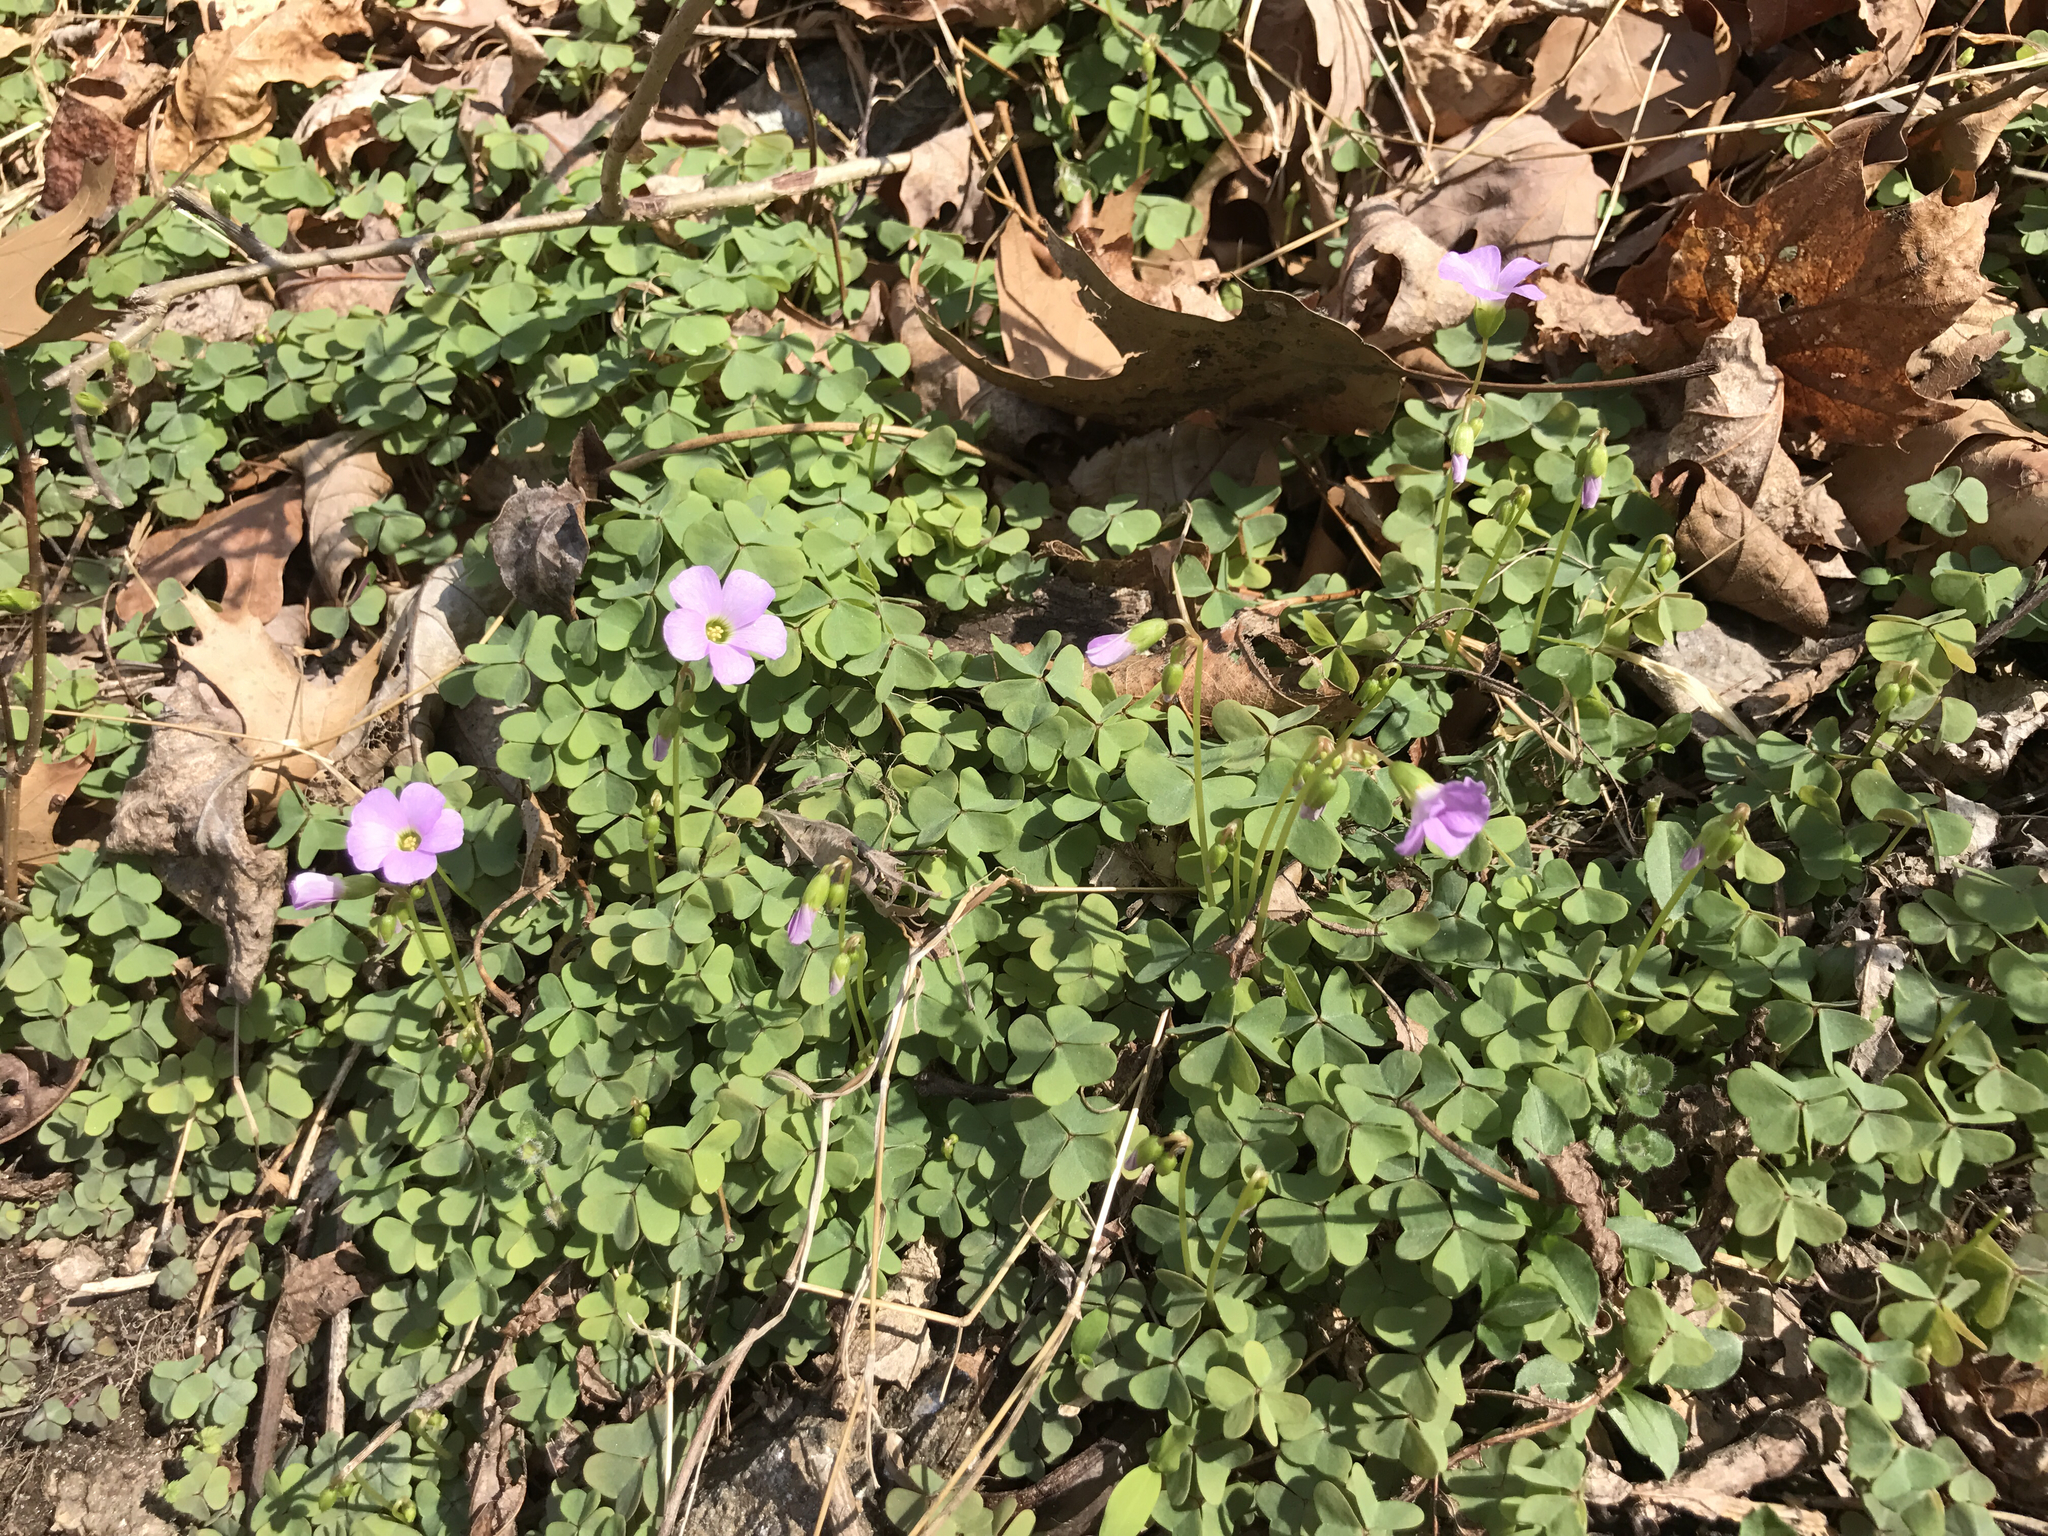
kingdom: Plantae
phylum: Tracheophyta
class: Magnoliopsida
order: Oxalidales
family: Oxalidaceae
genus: Oxalis
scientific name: Oxalis violacea
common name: Violet wood-sorrel
